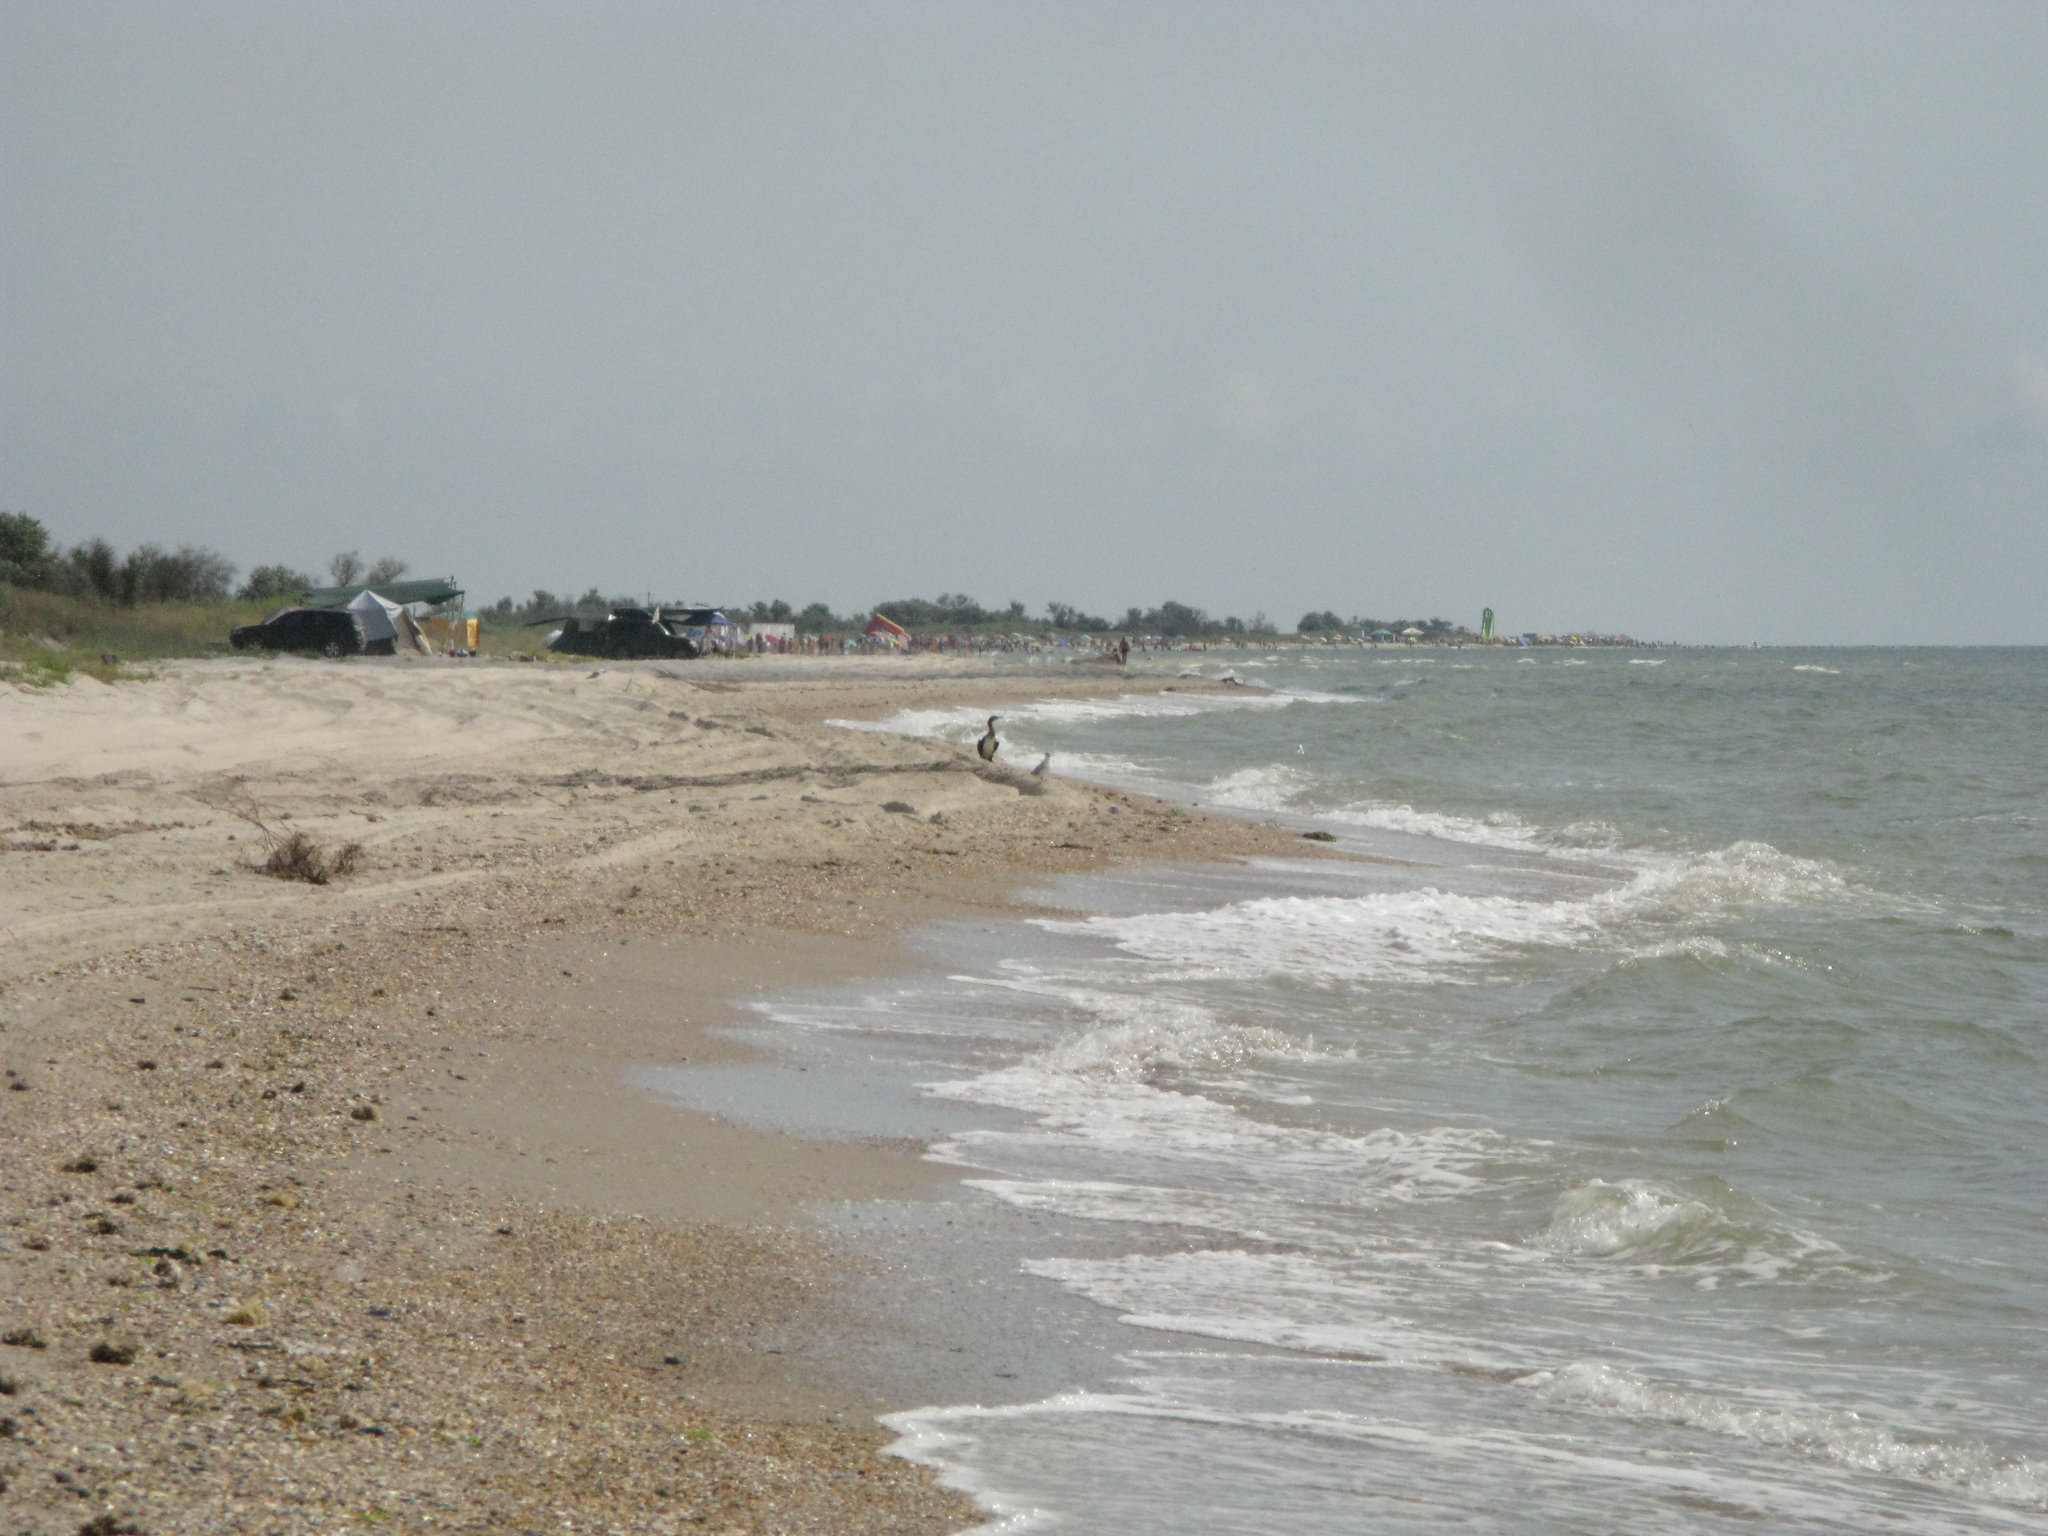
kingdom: Animalia
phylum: Chordata
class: Aves
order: Suliformes
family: Phalacrocoracidae
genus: Phalacrocorax
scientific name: Phalacrocorax carbo
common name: Great cormorant
